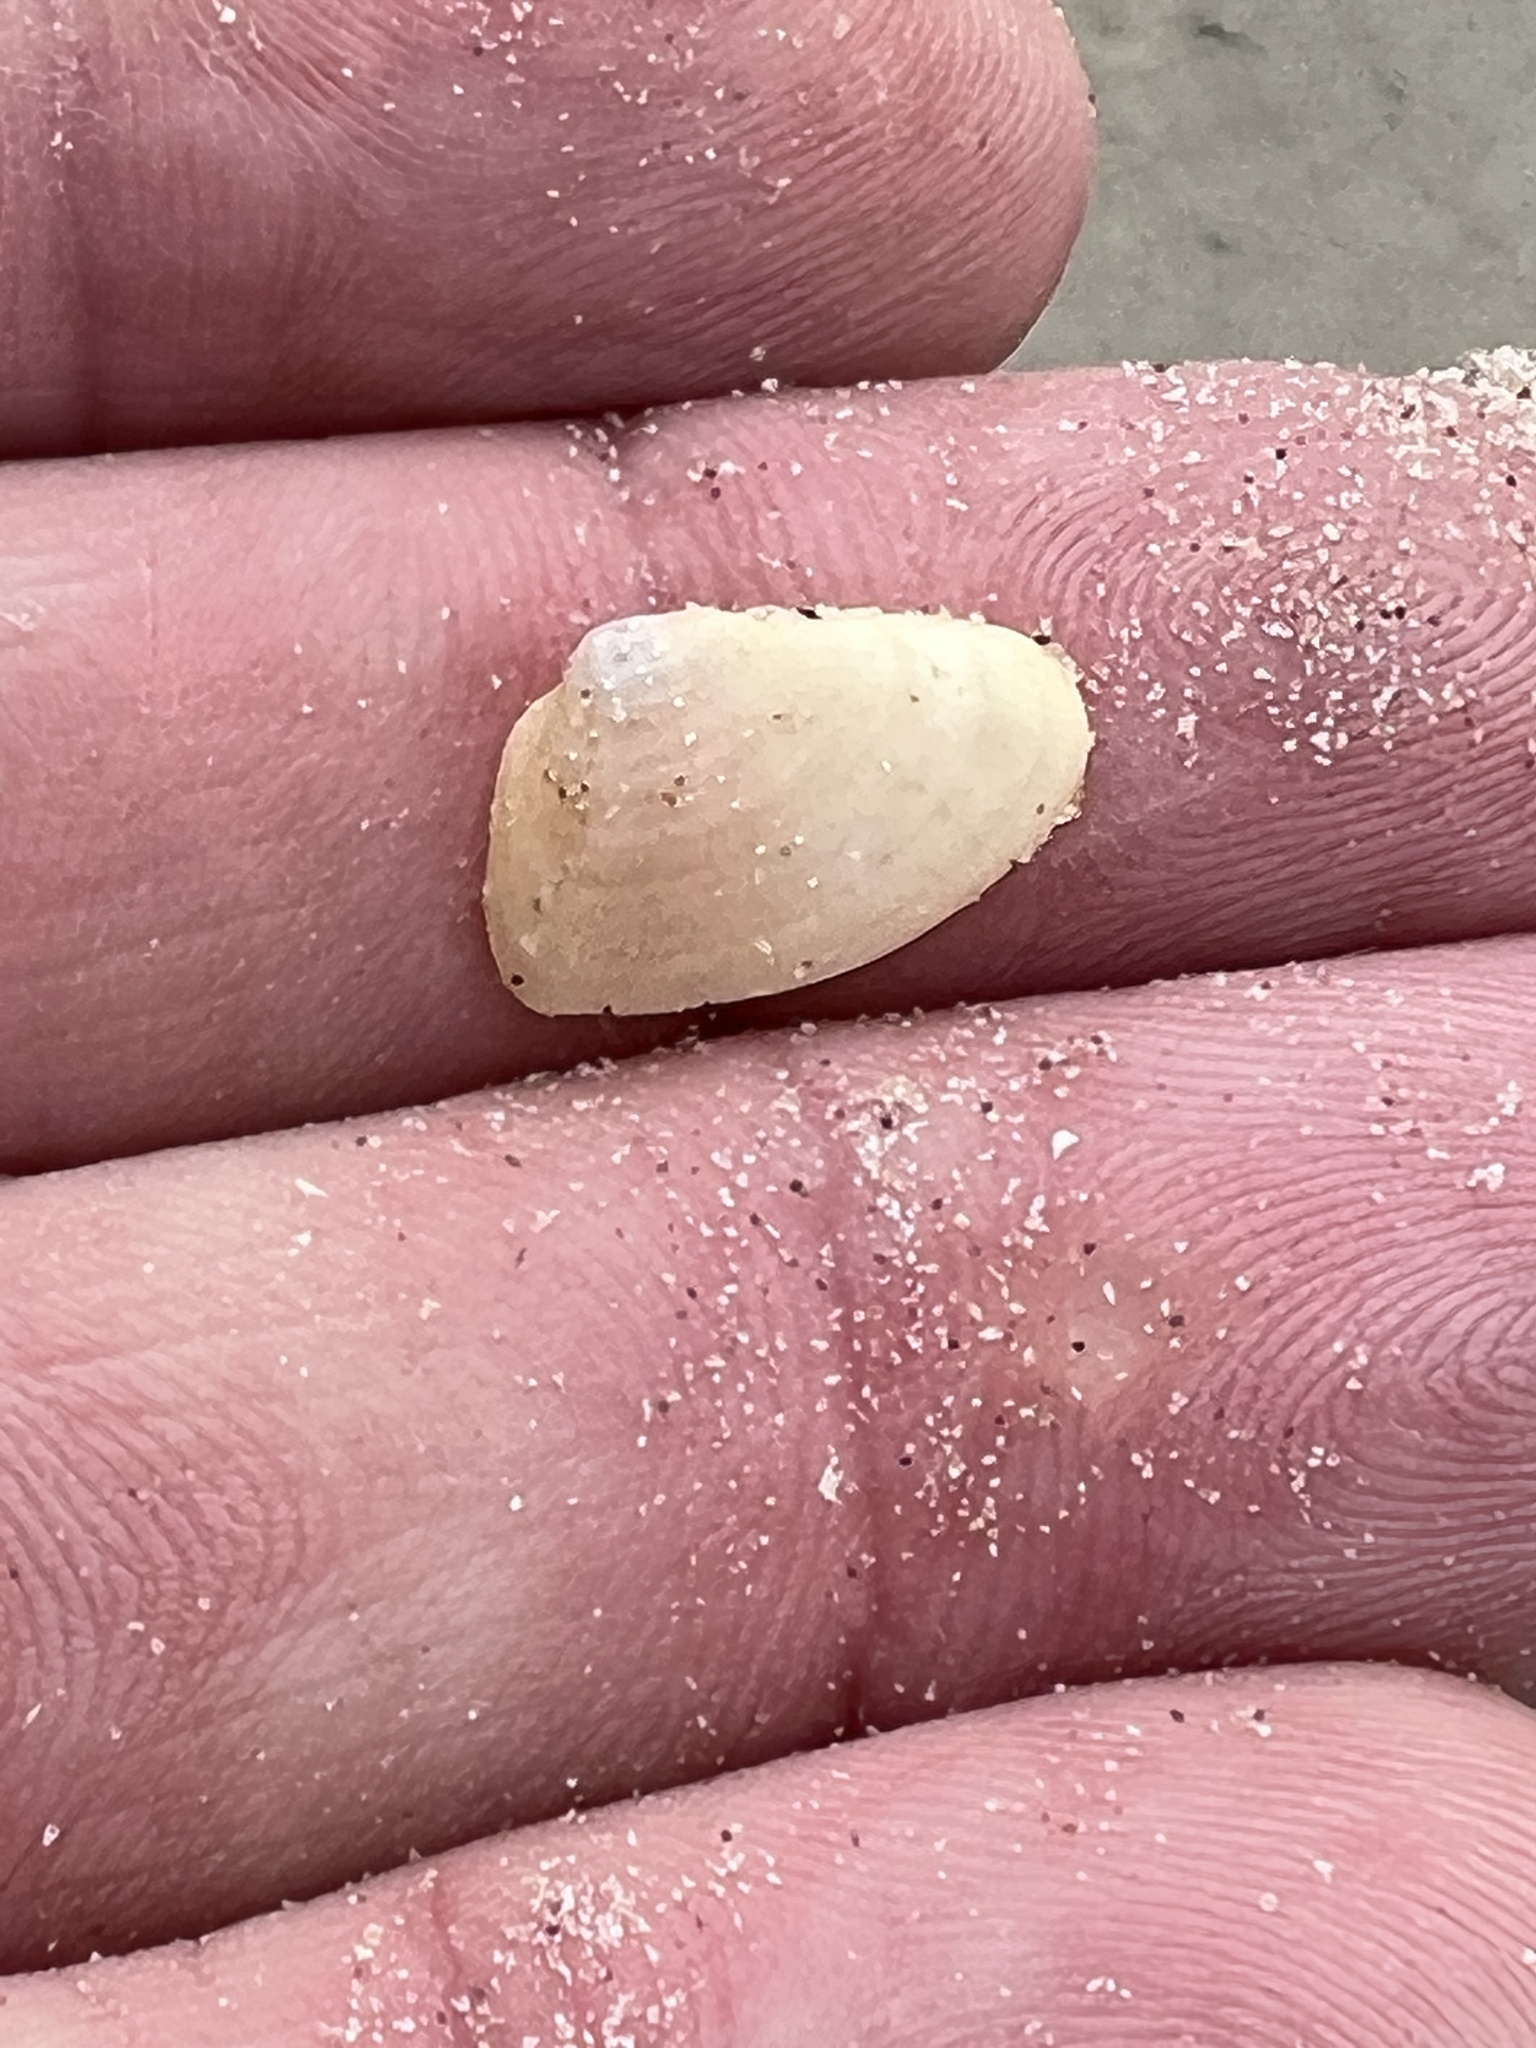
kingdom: Animalia
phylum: Mollusca
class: Bivalvia
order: Cardiida
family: Donacidae
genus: Donax
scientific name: Donax variabilis
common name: Butterfly shell
